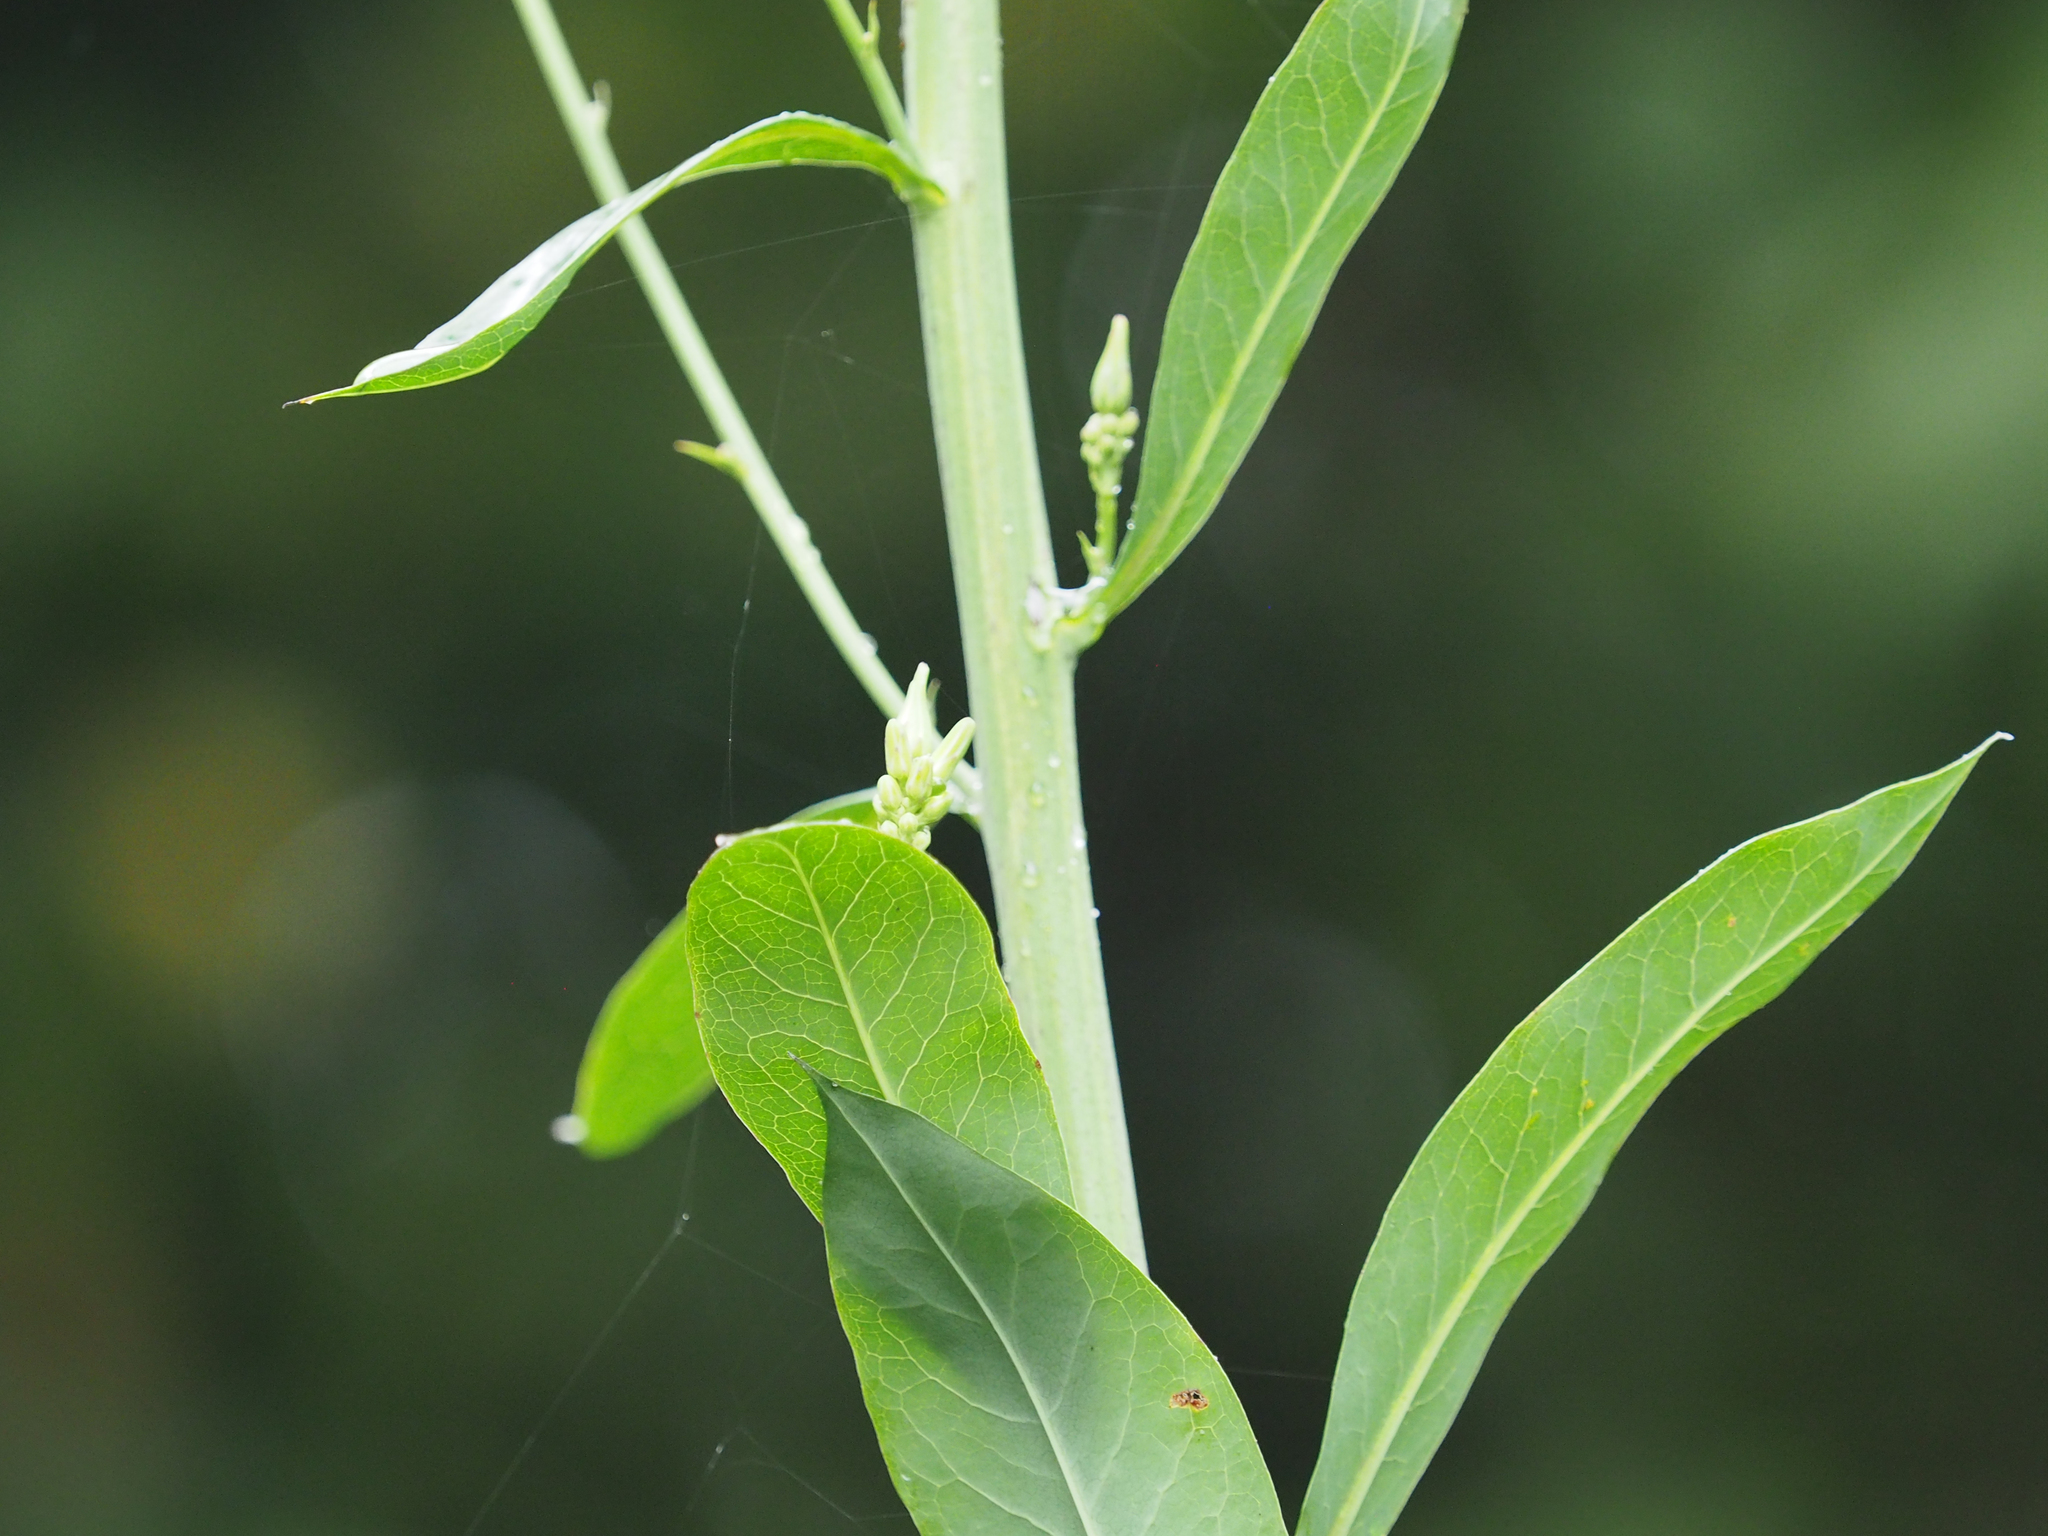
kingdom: Plantae
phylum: Tracheophyta
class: Magnoliopsida
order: Asterales
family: Asteraceae
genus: Lactuca
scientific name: Lactuca canadensis
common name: Canada lettuce
